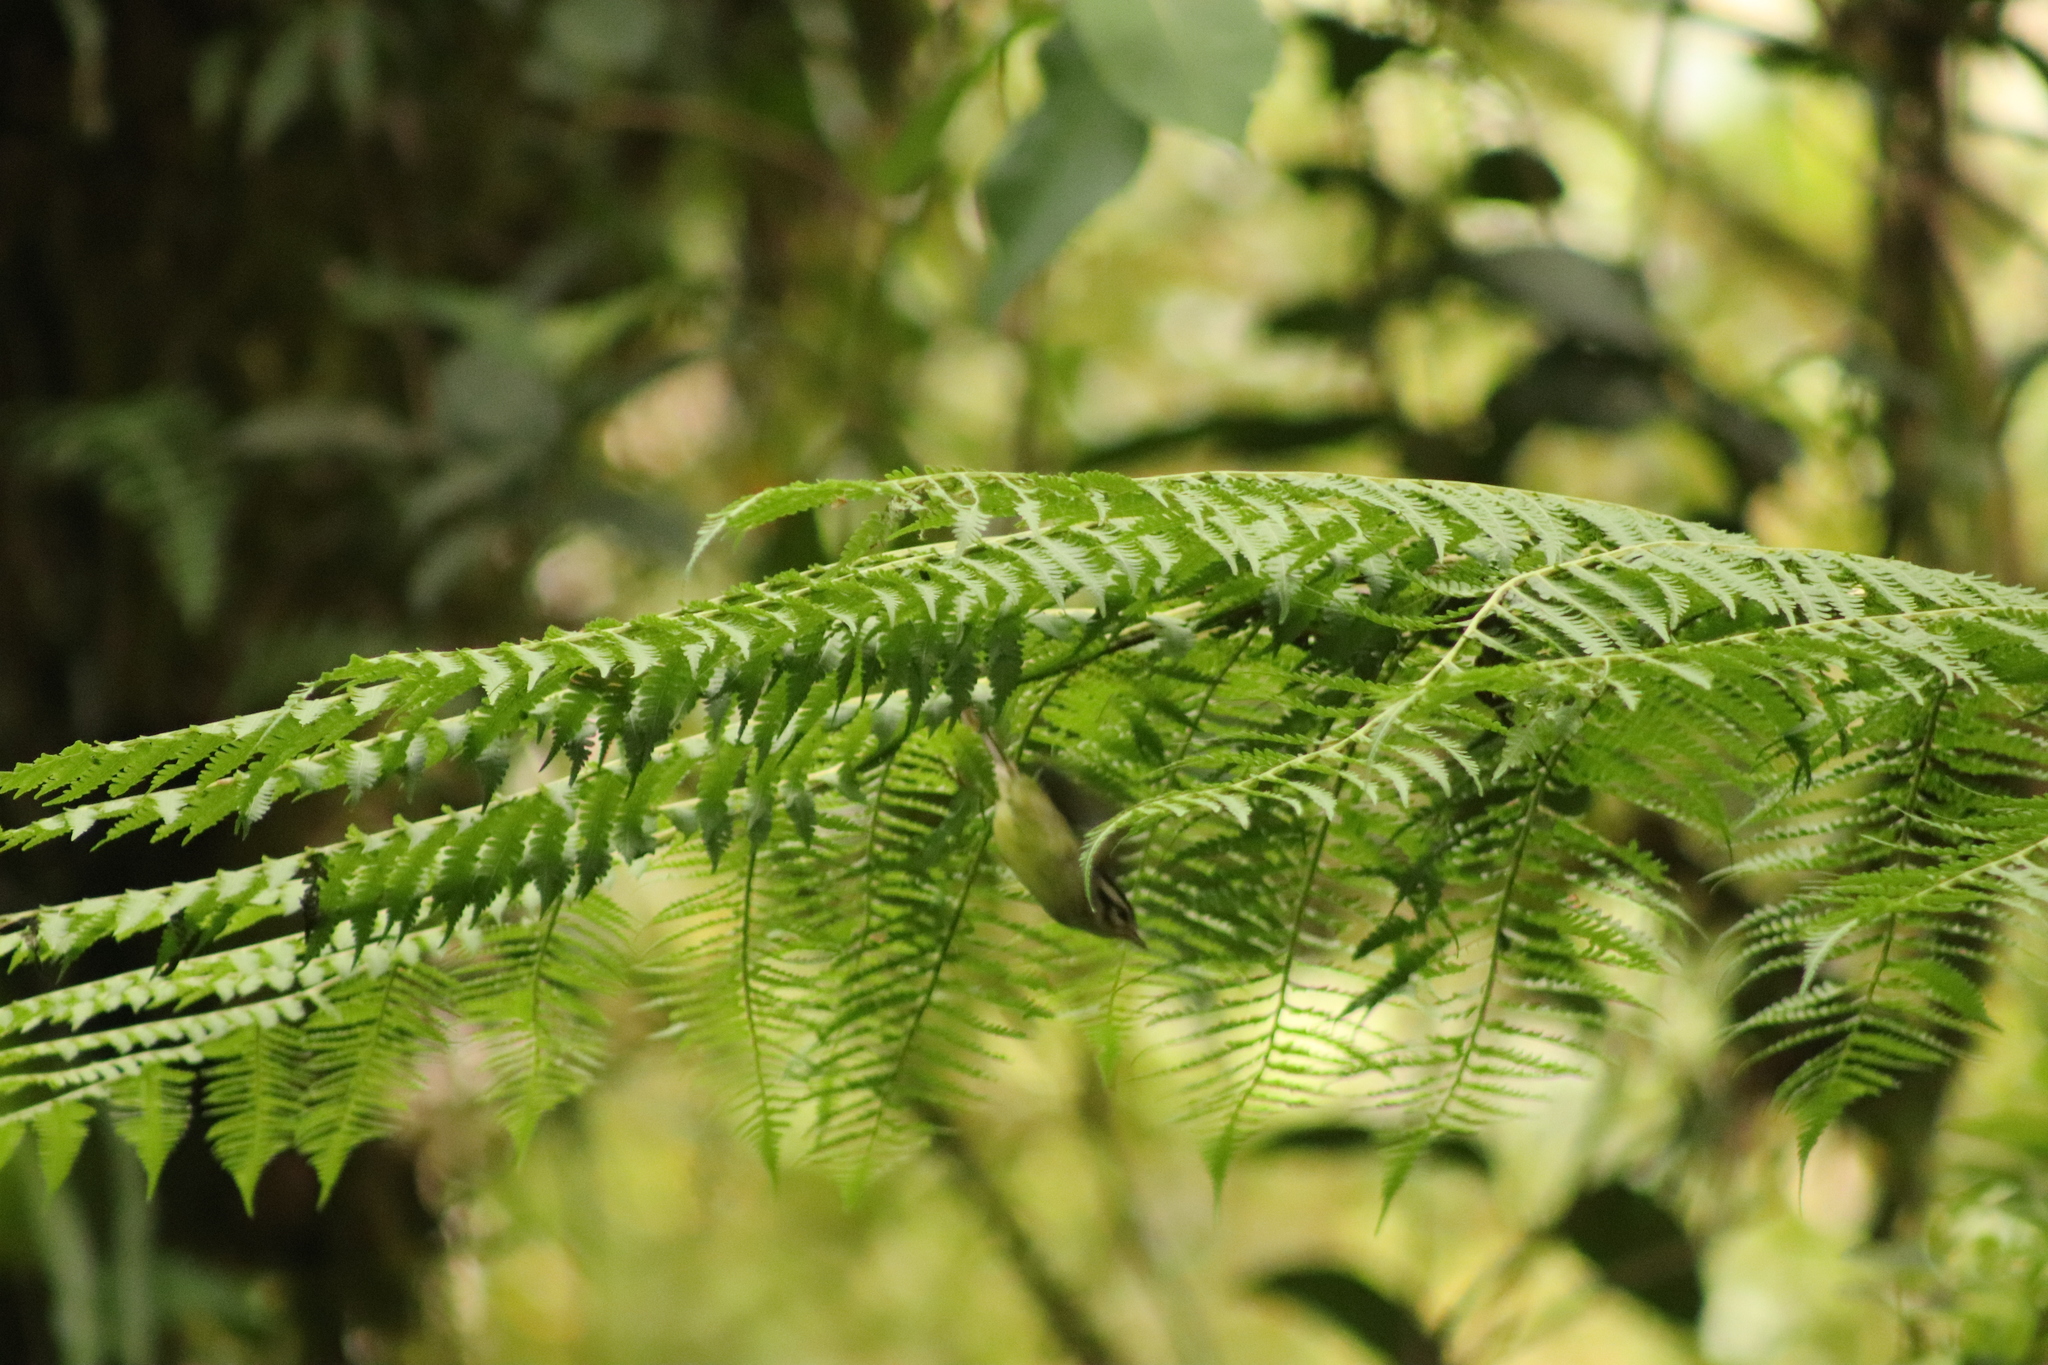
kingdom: Animalia
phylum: Chordata
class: Aves
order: Passeriformes
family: Parulidae
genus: Basileuterus
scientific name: Basileuterus melanotis
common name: Black-eared warbler
